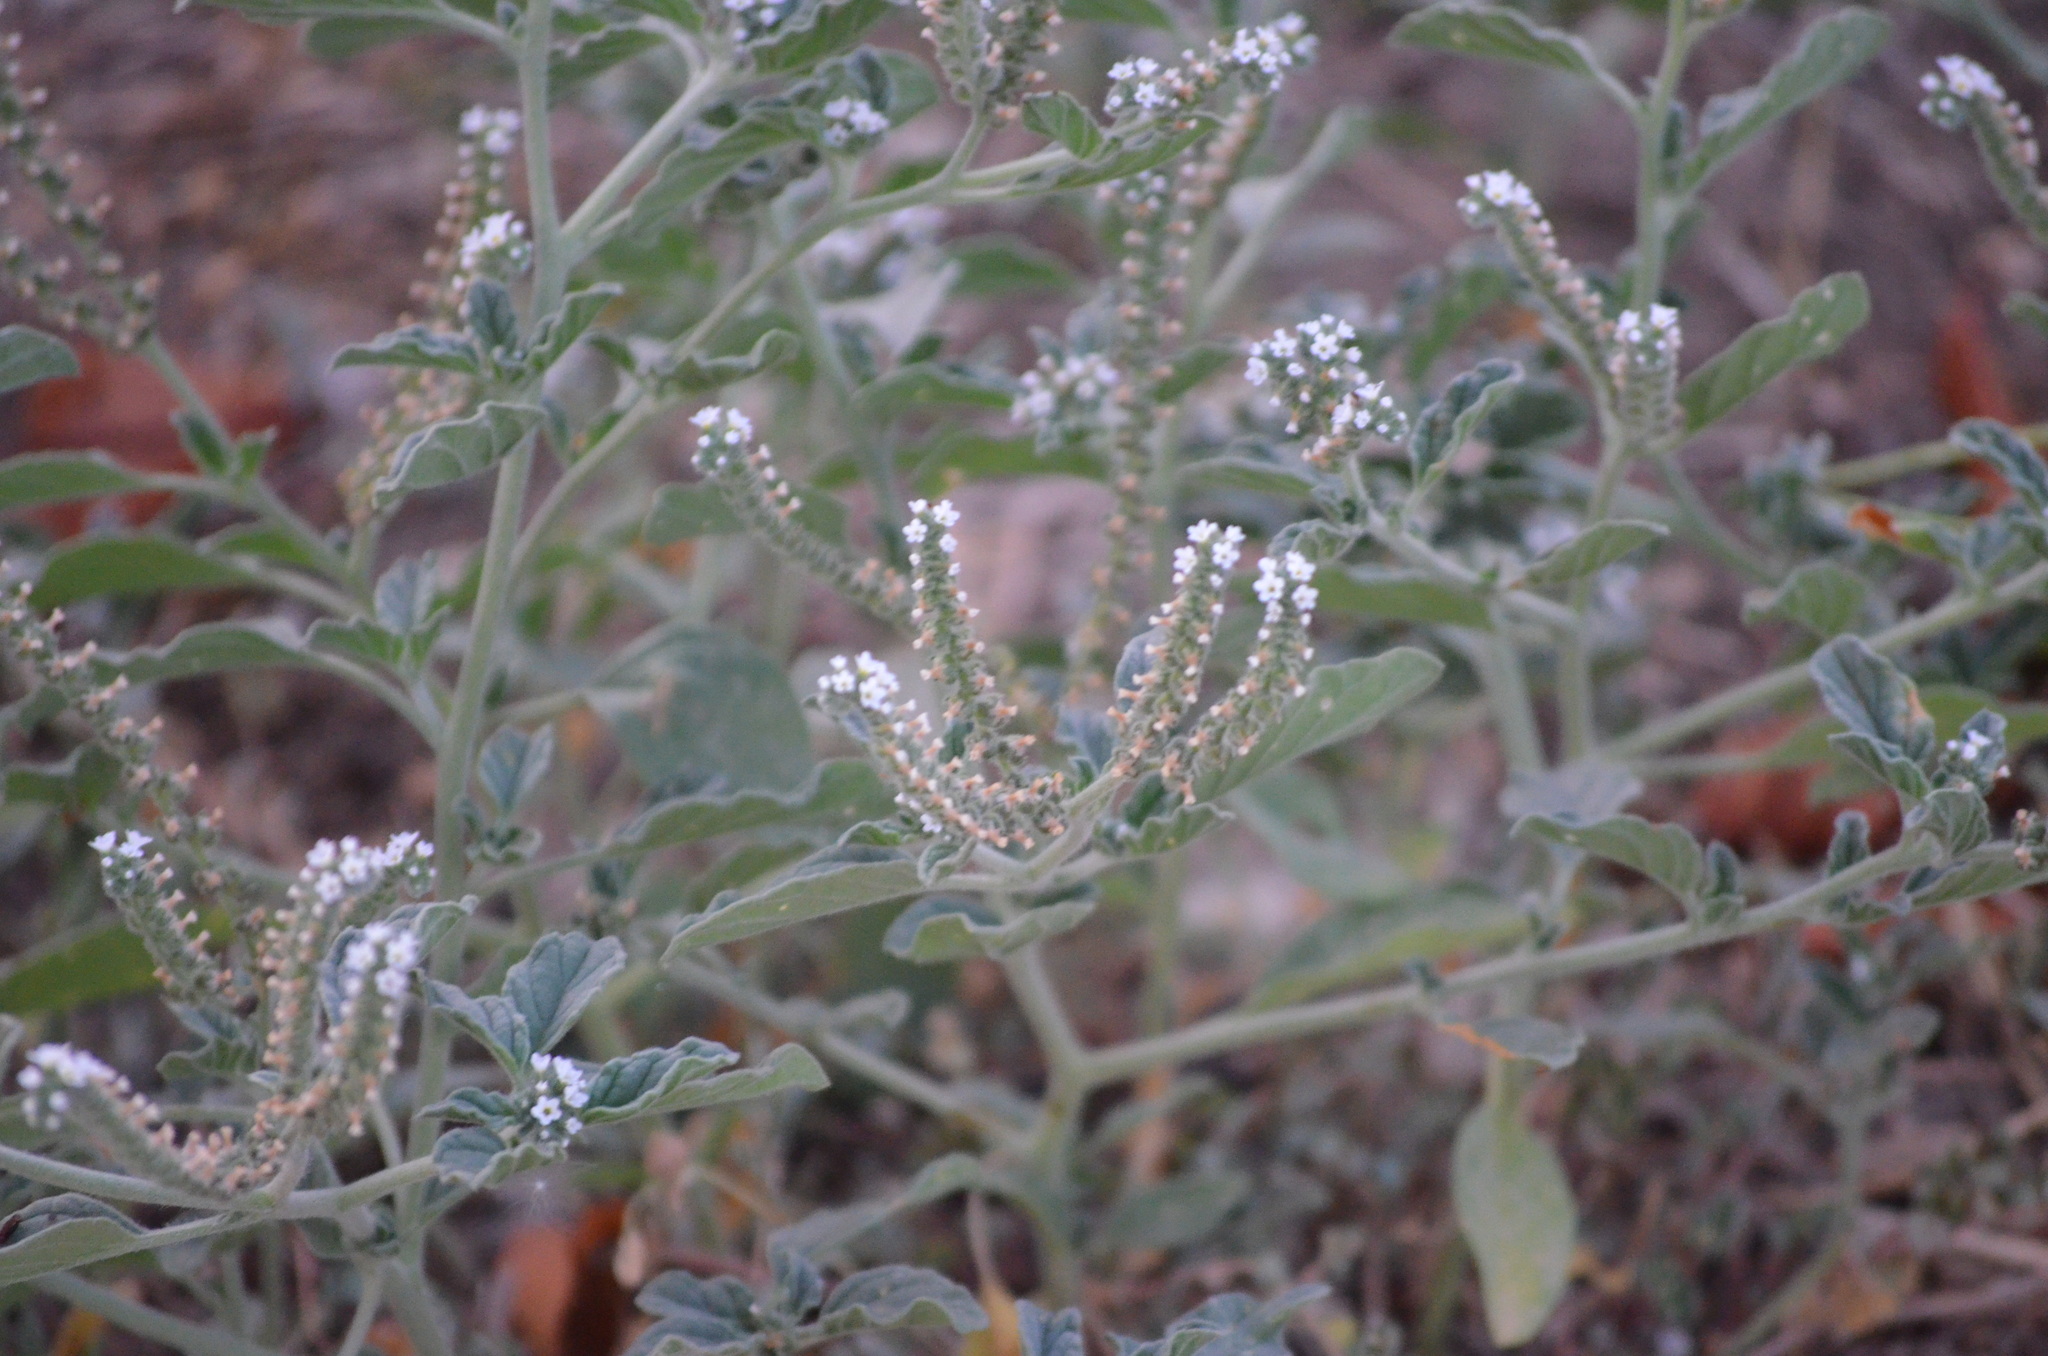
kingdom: Plantae
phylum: Tracheophyta
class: Magnoliopsida
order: Boraginales
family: Heliotropiaceae
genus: Heliotropium
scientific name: Heliotropium europaeum
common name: European heliotrope
